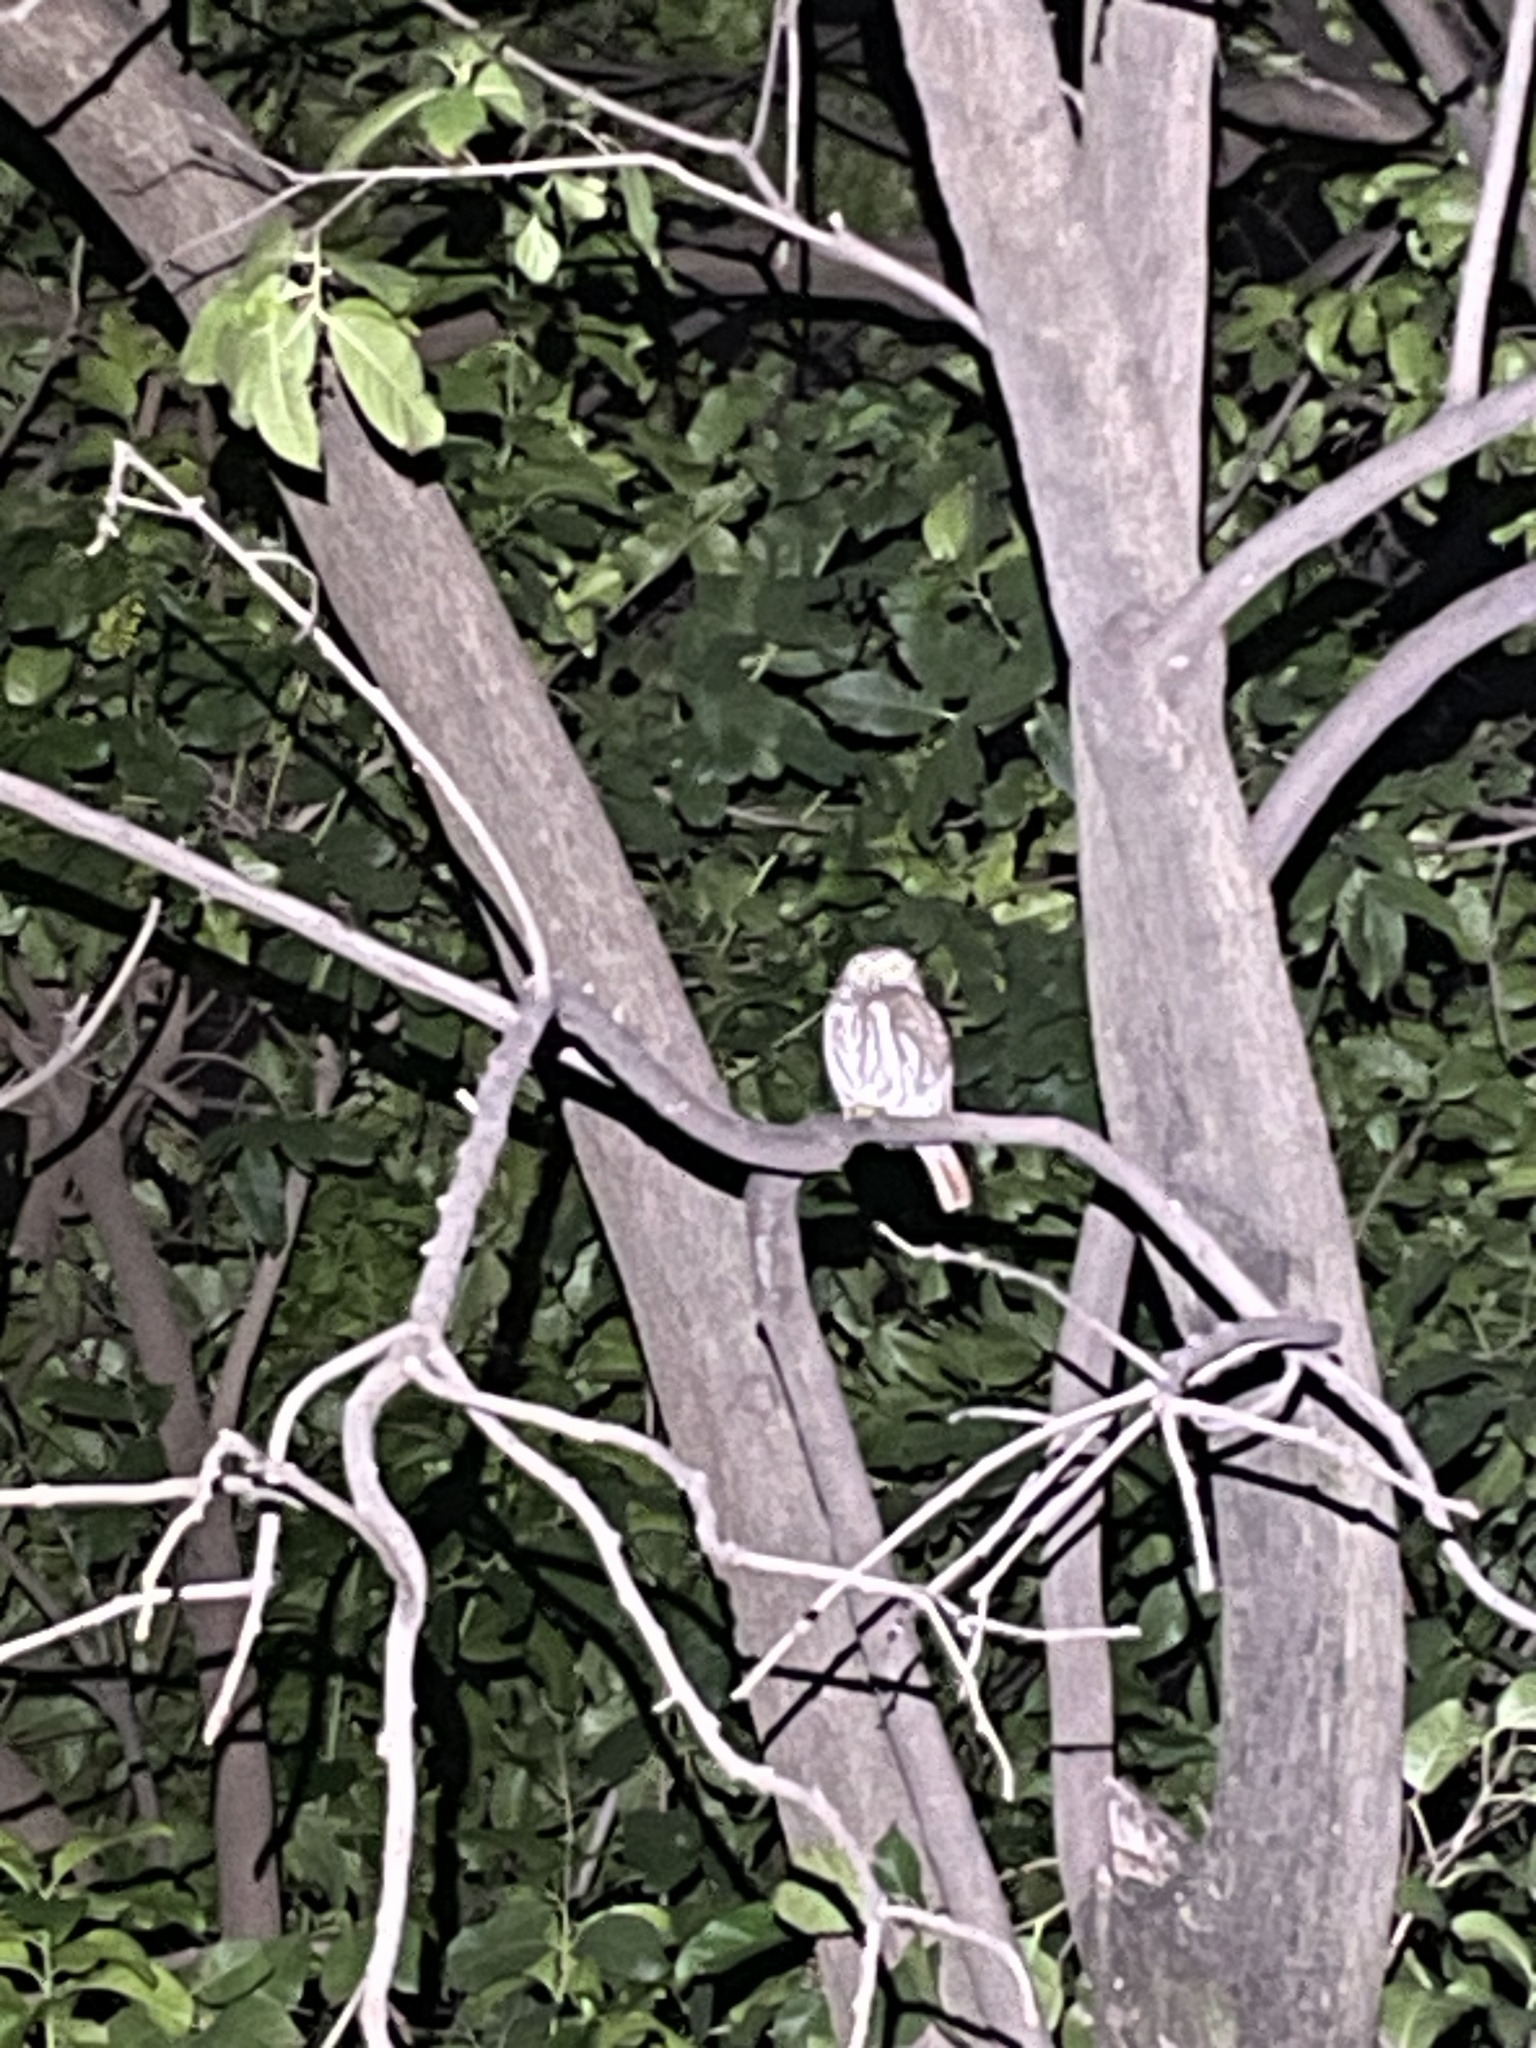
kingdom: Animalia
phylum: Chordata
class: Aves
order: Strigiformes
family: Strigidae
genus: Glaucidium
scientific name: Glaucidium brasilianum
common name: Ferruginous pygmy-owl
